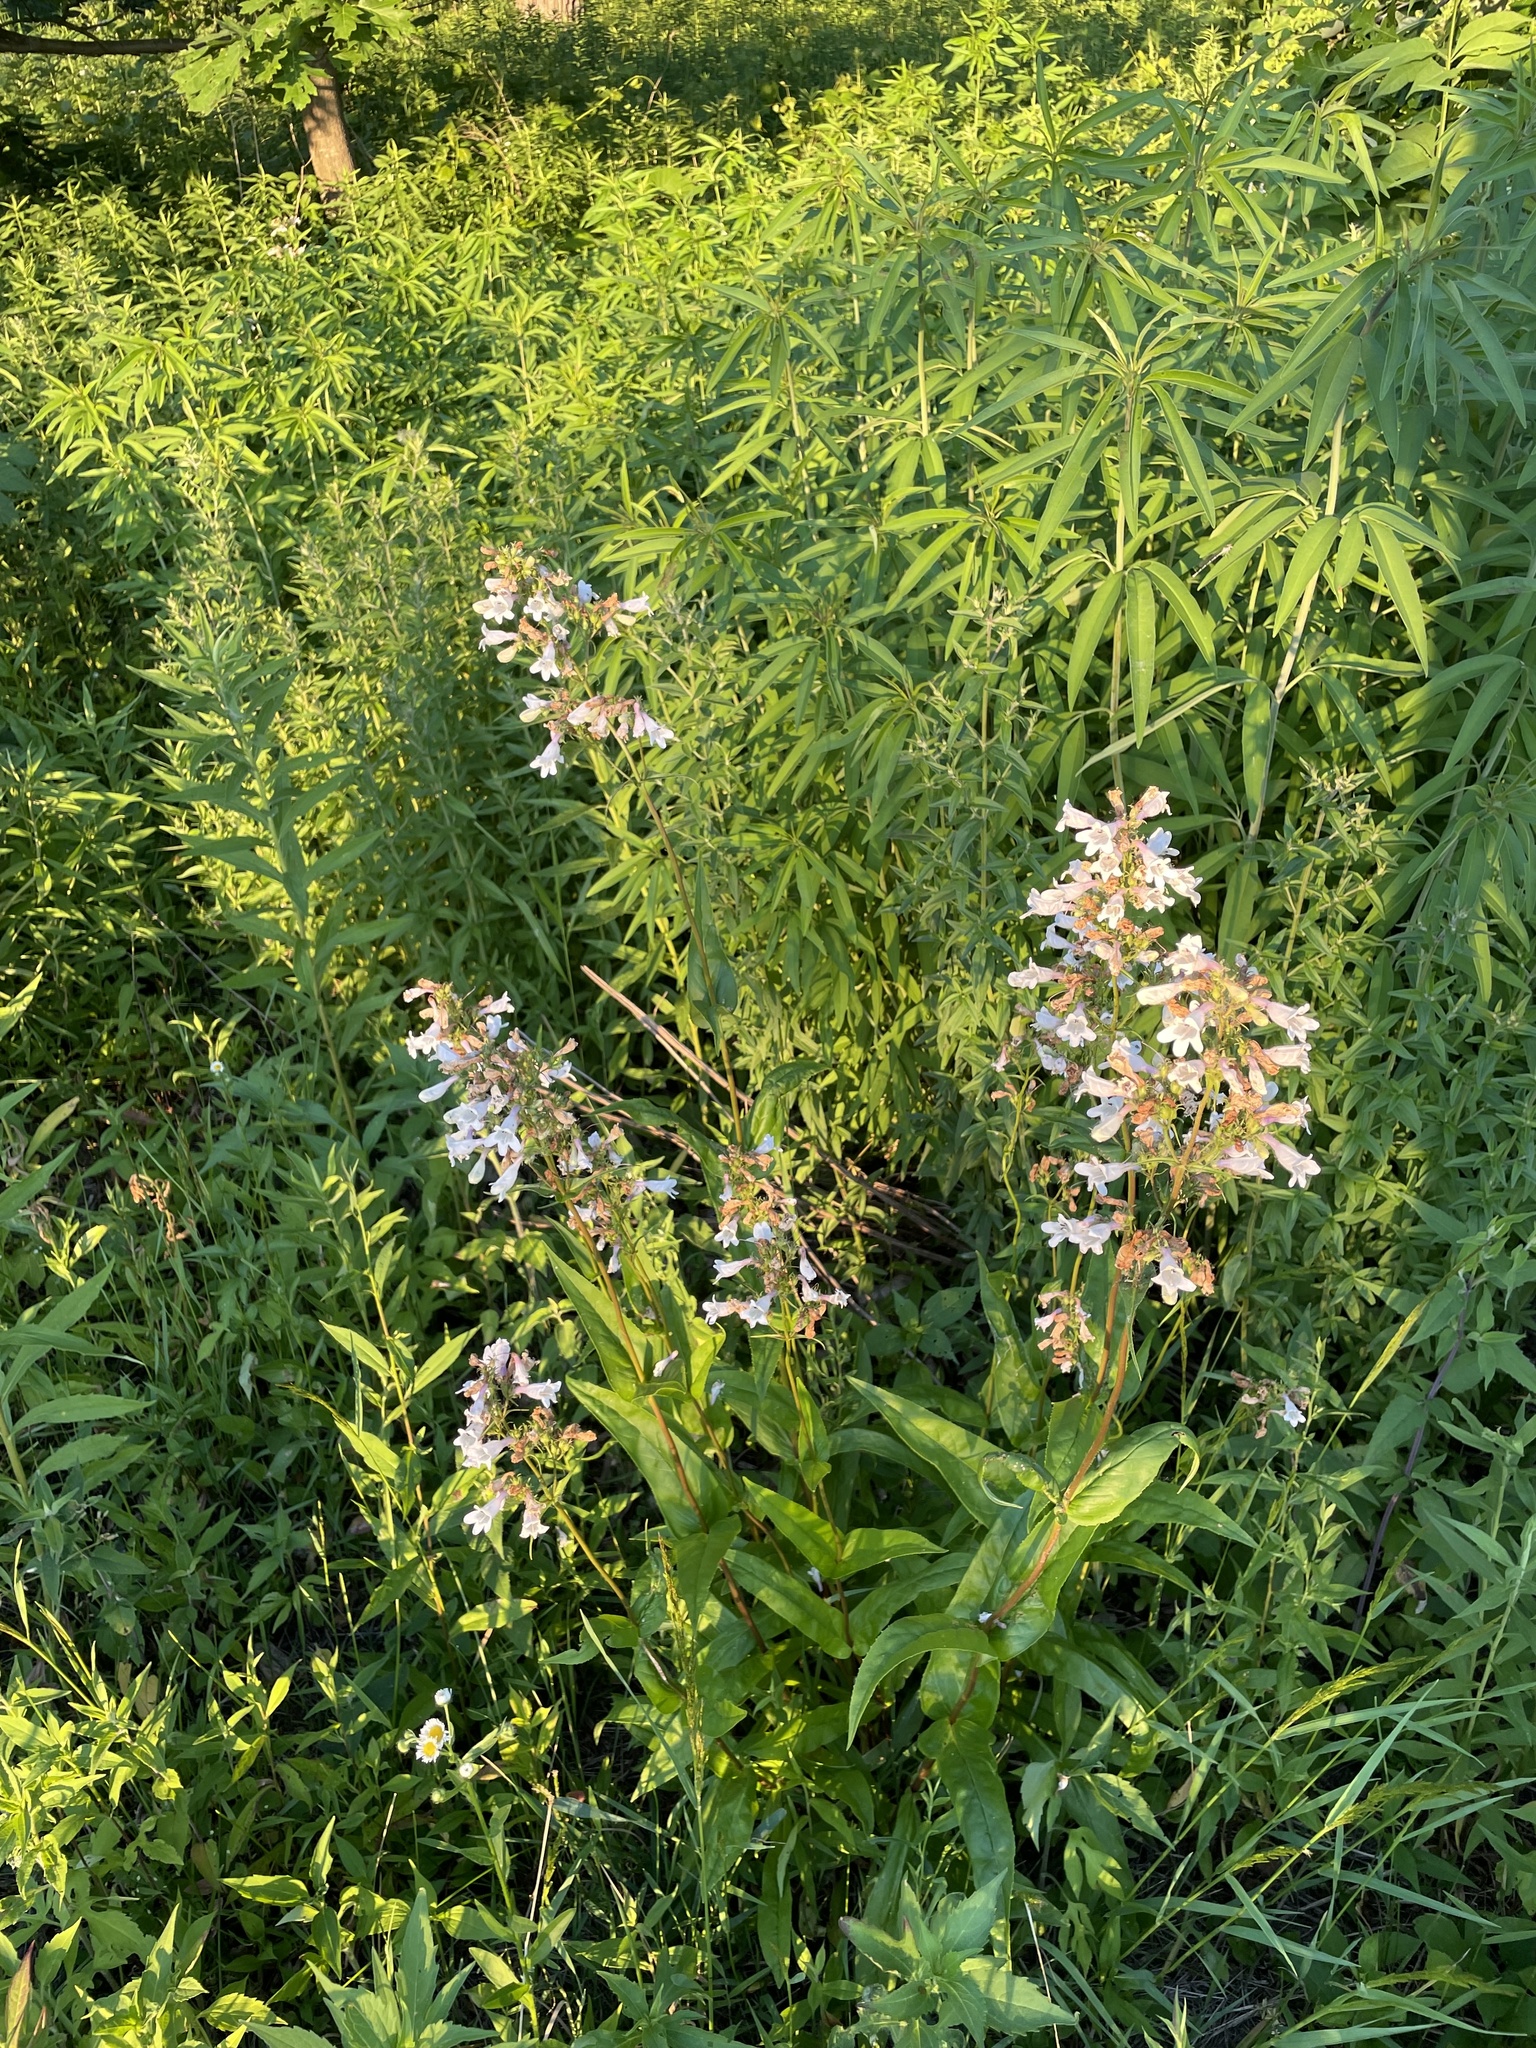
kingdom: Plantae
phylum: Tracheophyta
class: Magnoliopsida
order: Lamiales
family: Plantaginaceae
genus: Penstemon
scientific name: Penstemon digitalis
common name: Foxglove beardtongue
